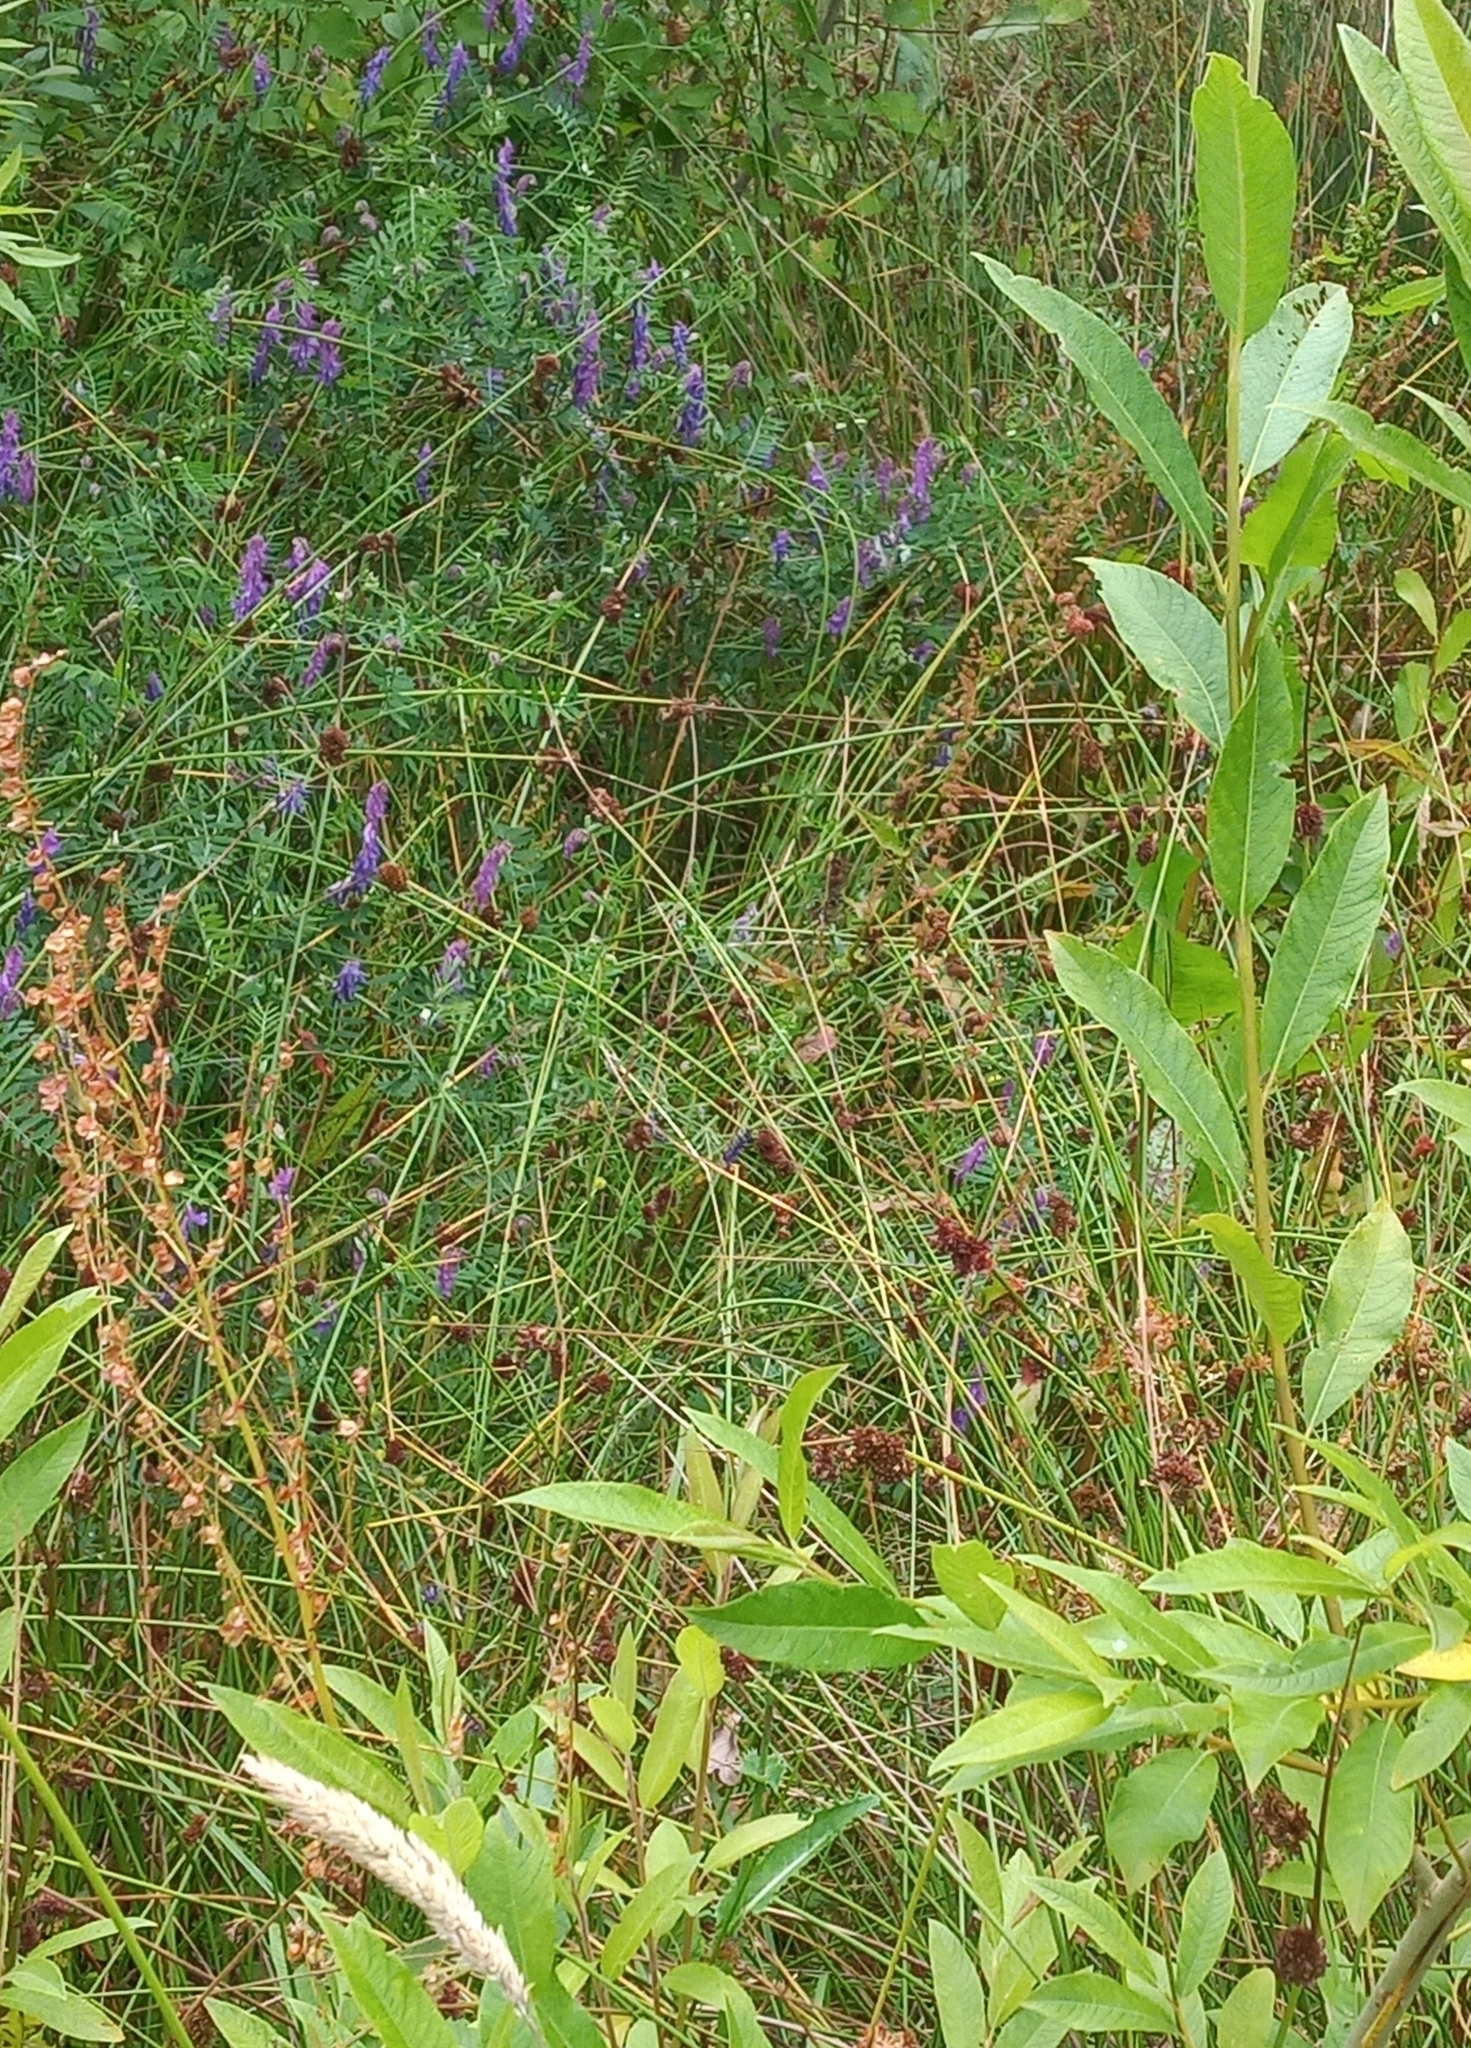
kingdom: Plantae
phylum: Tracheophyta
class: Magnoliopsida
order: Fabales
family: Fabaceae
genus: Vicia
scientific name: Vicia cracca
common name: Bird vetch
